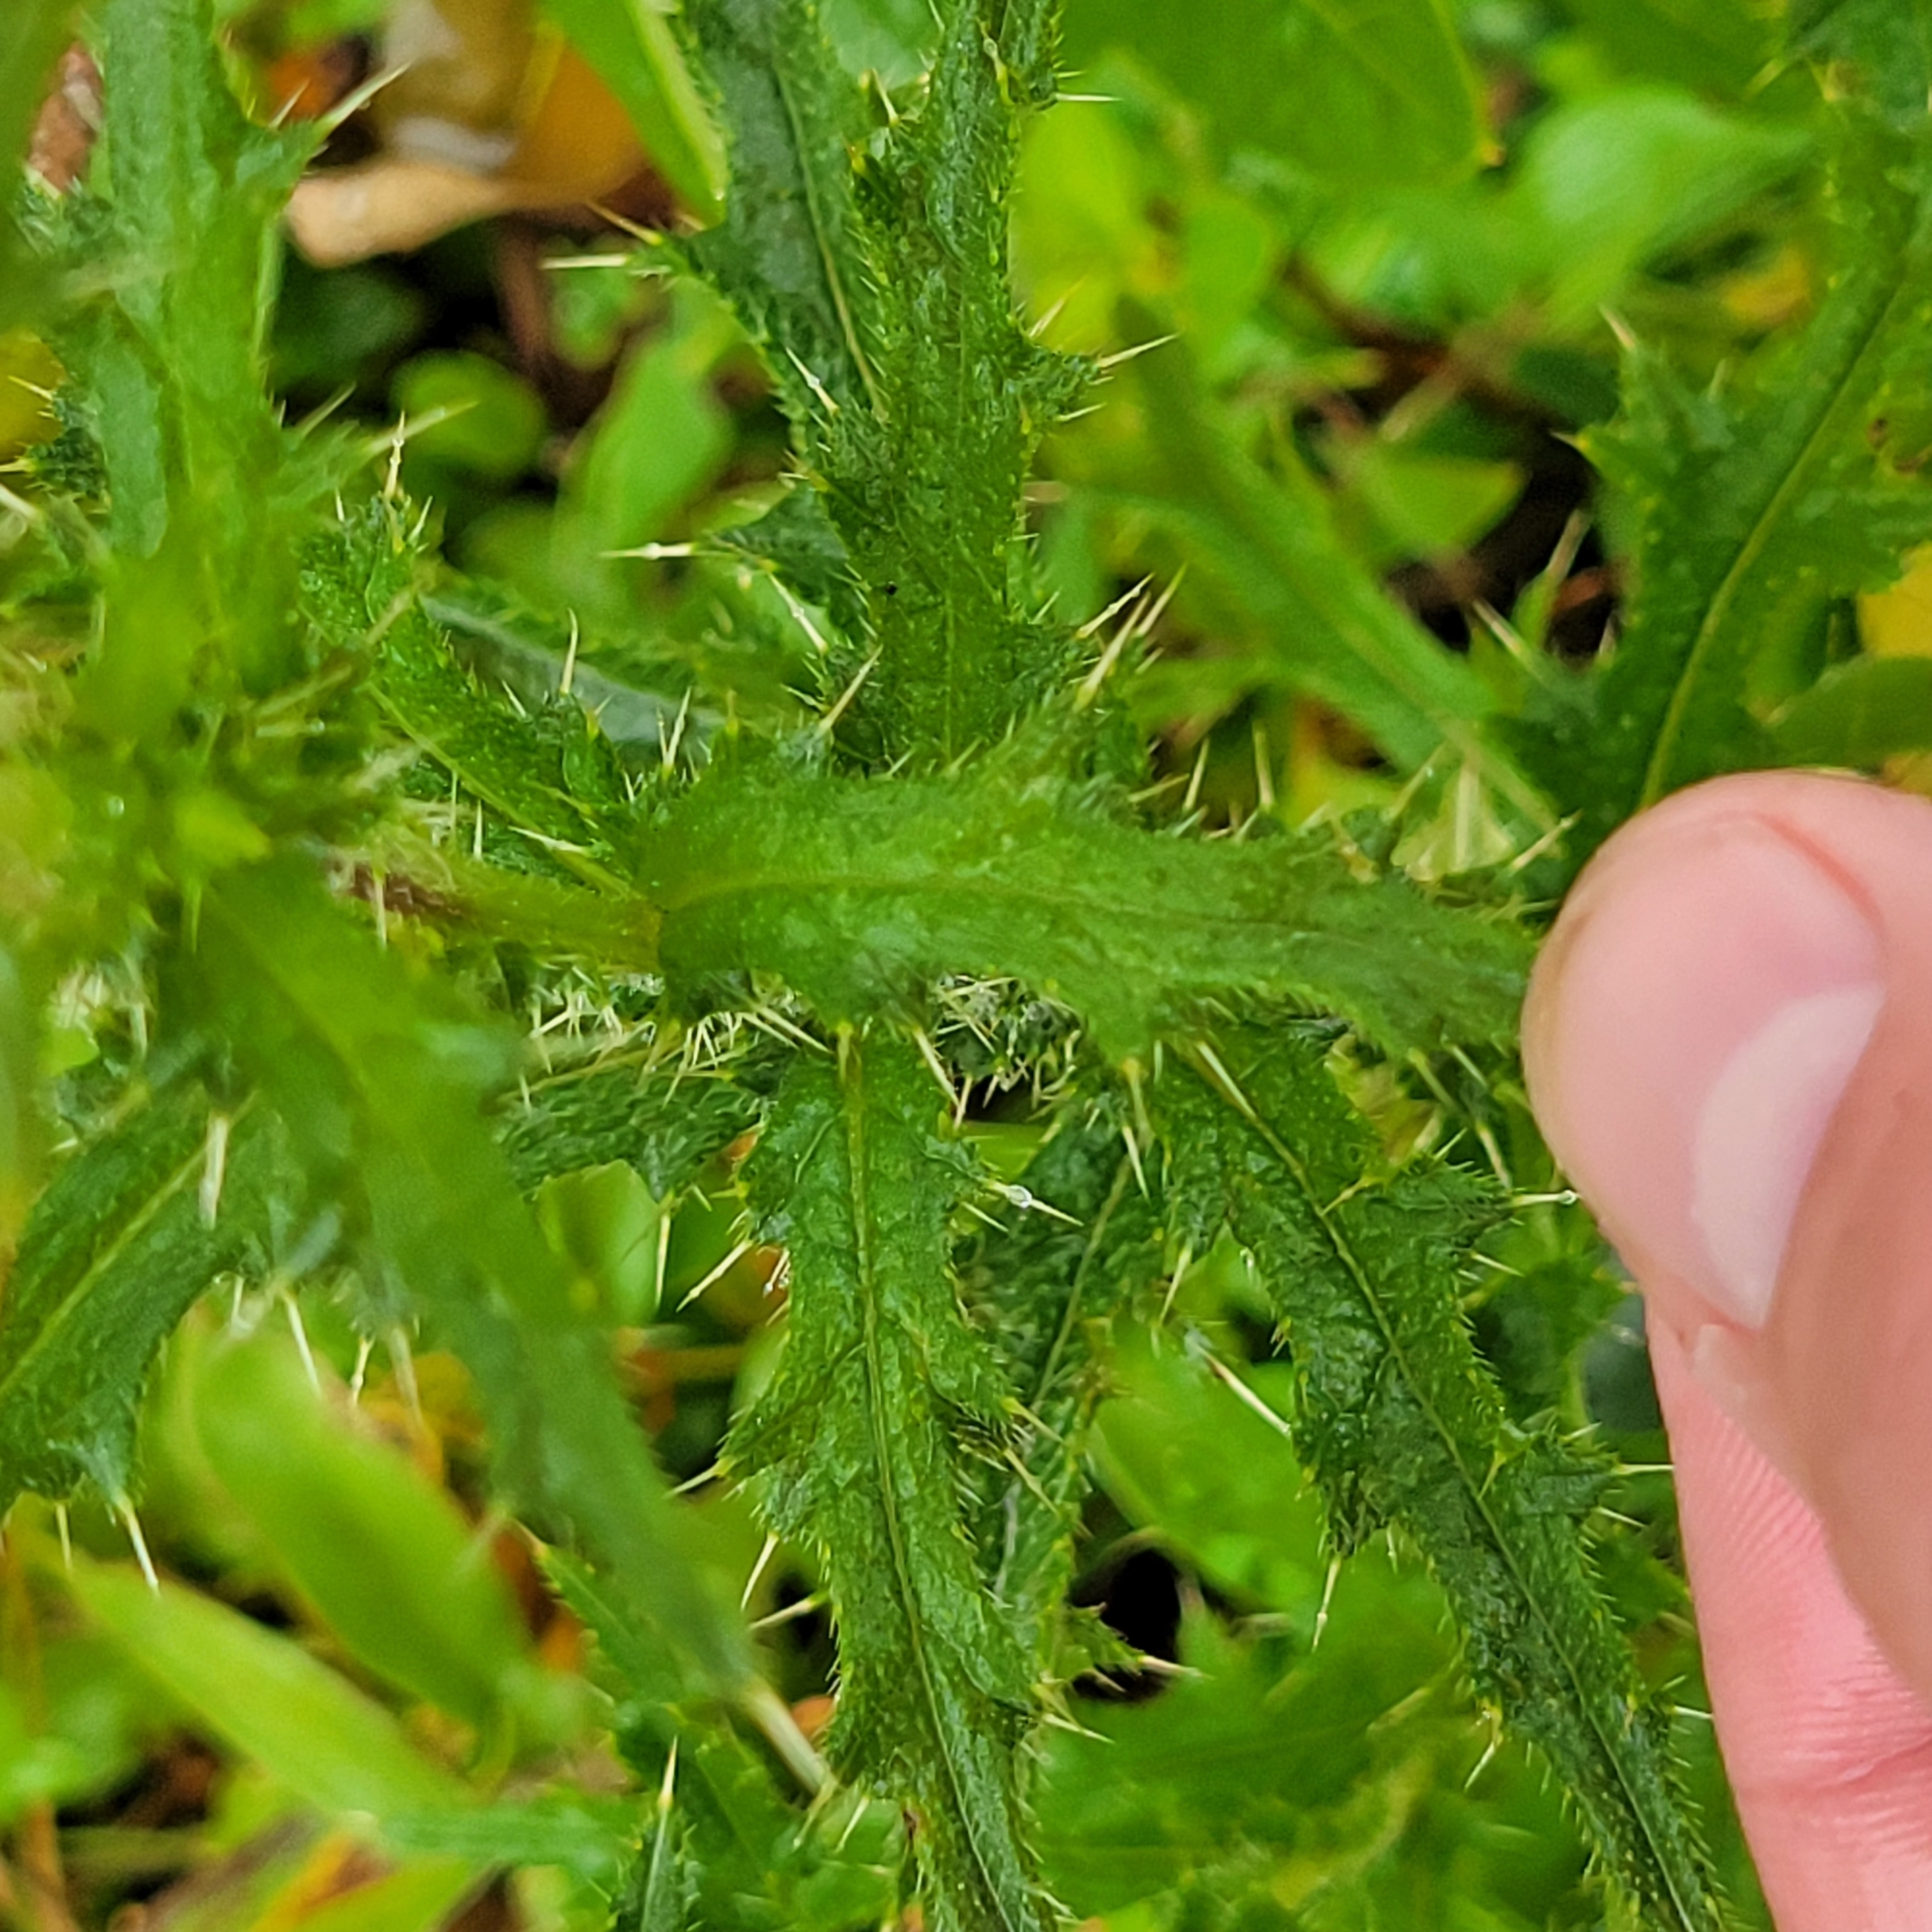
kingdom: Plantae
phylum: Tracheophyta
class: Magnoliopsida
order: Asterales
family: Asteraceae
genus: Cirsium
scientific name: Cirsium vulgare
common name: Bull thistle
